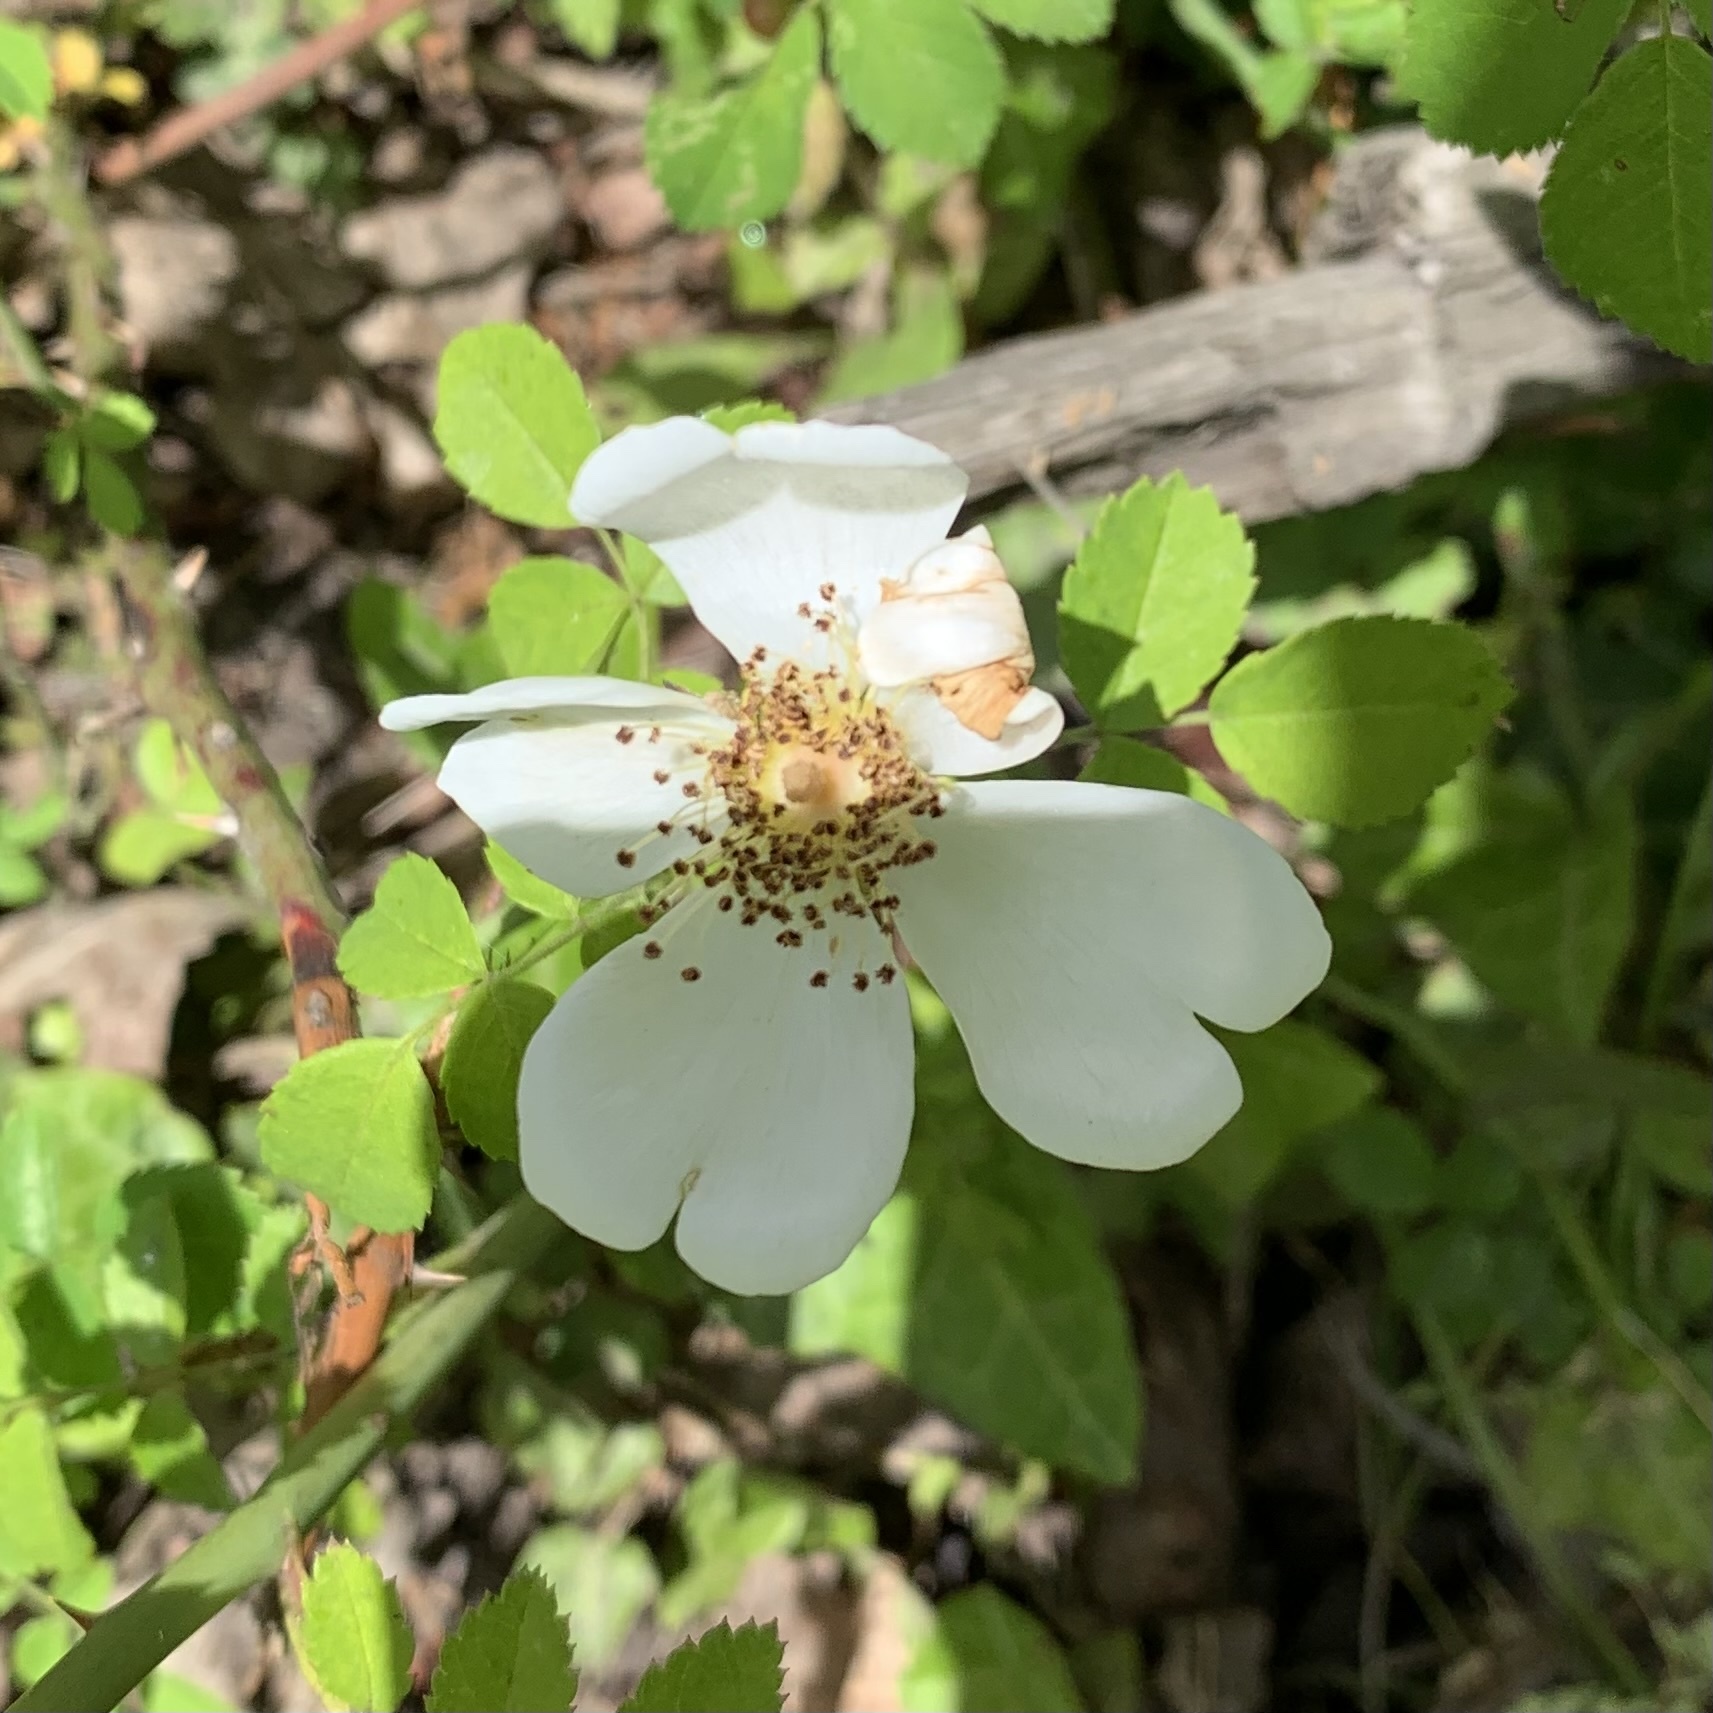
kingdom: Plantae
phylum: Tracheophyta
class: Magnoliopsida
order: Rosales
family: Rosaceae
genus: Rosa
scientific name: Rosa canina
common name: Dog rose
